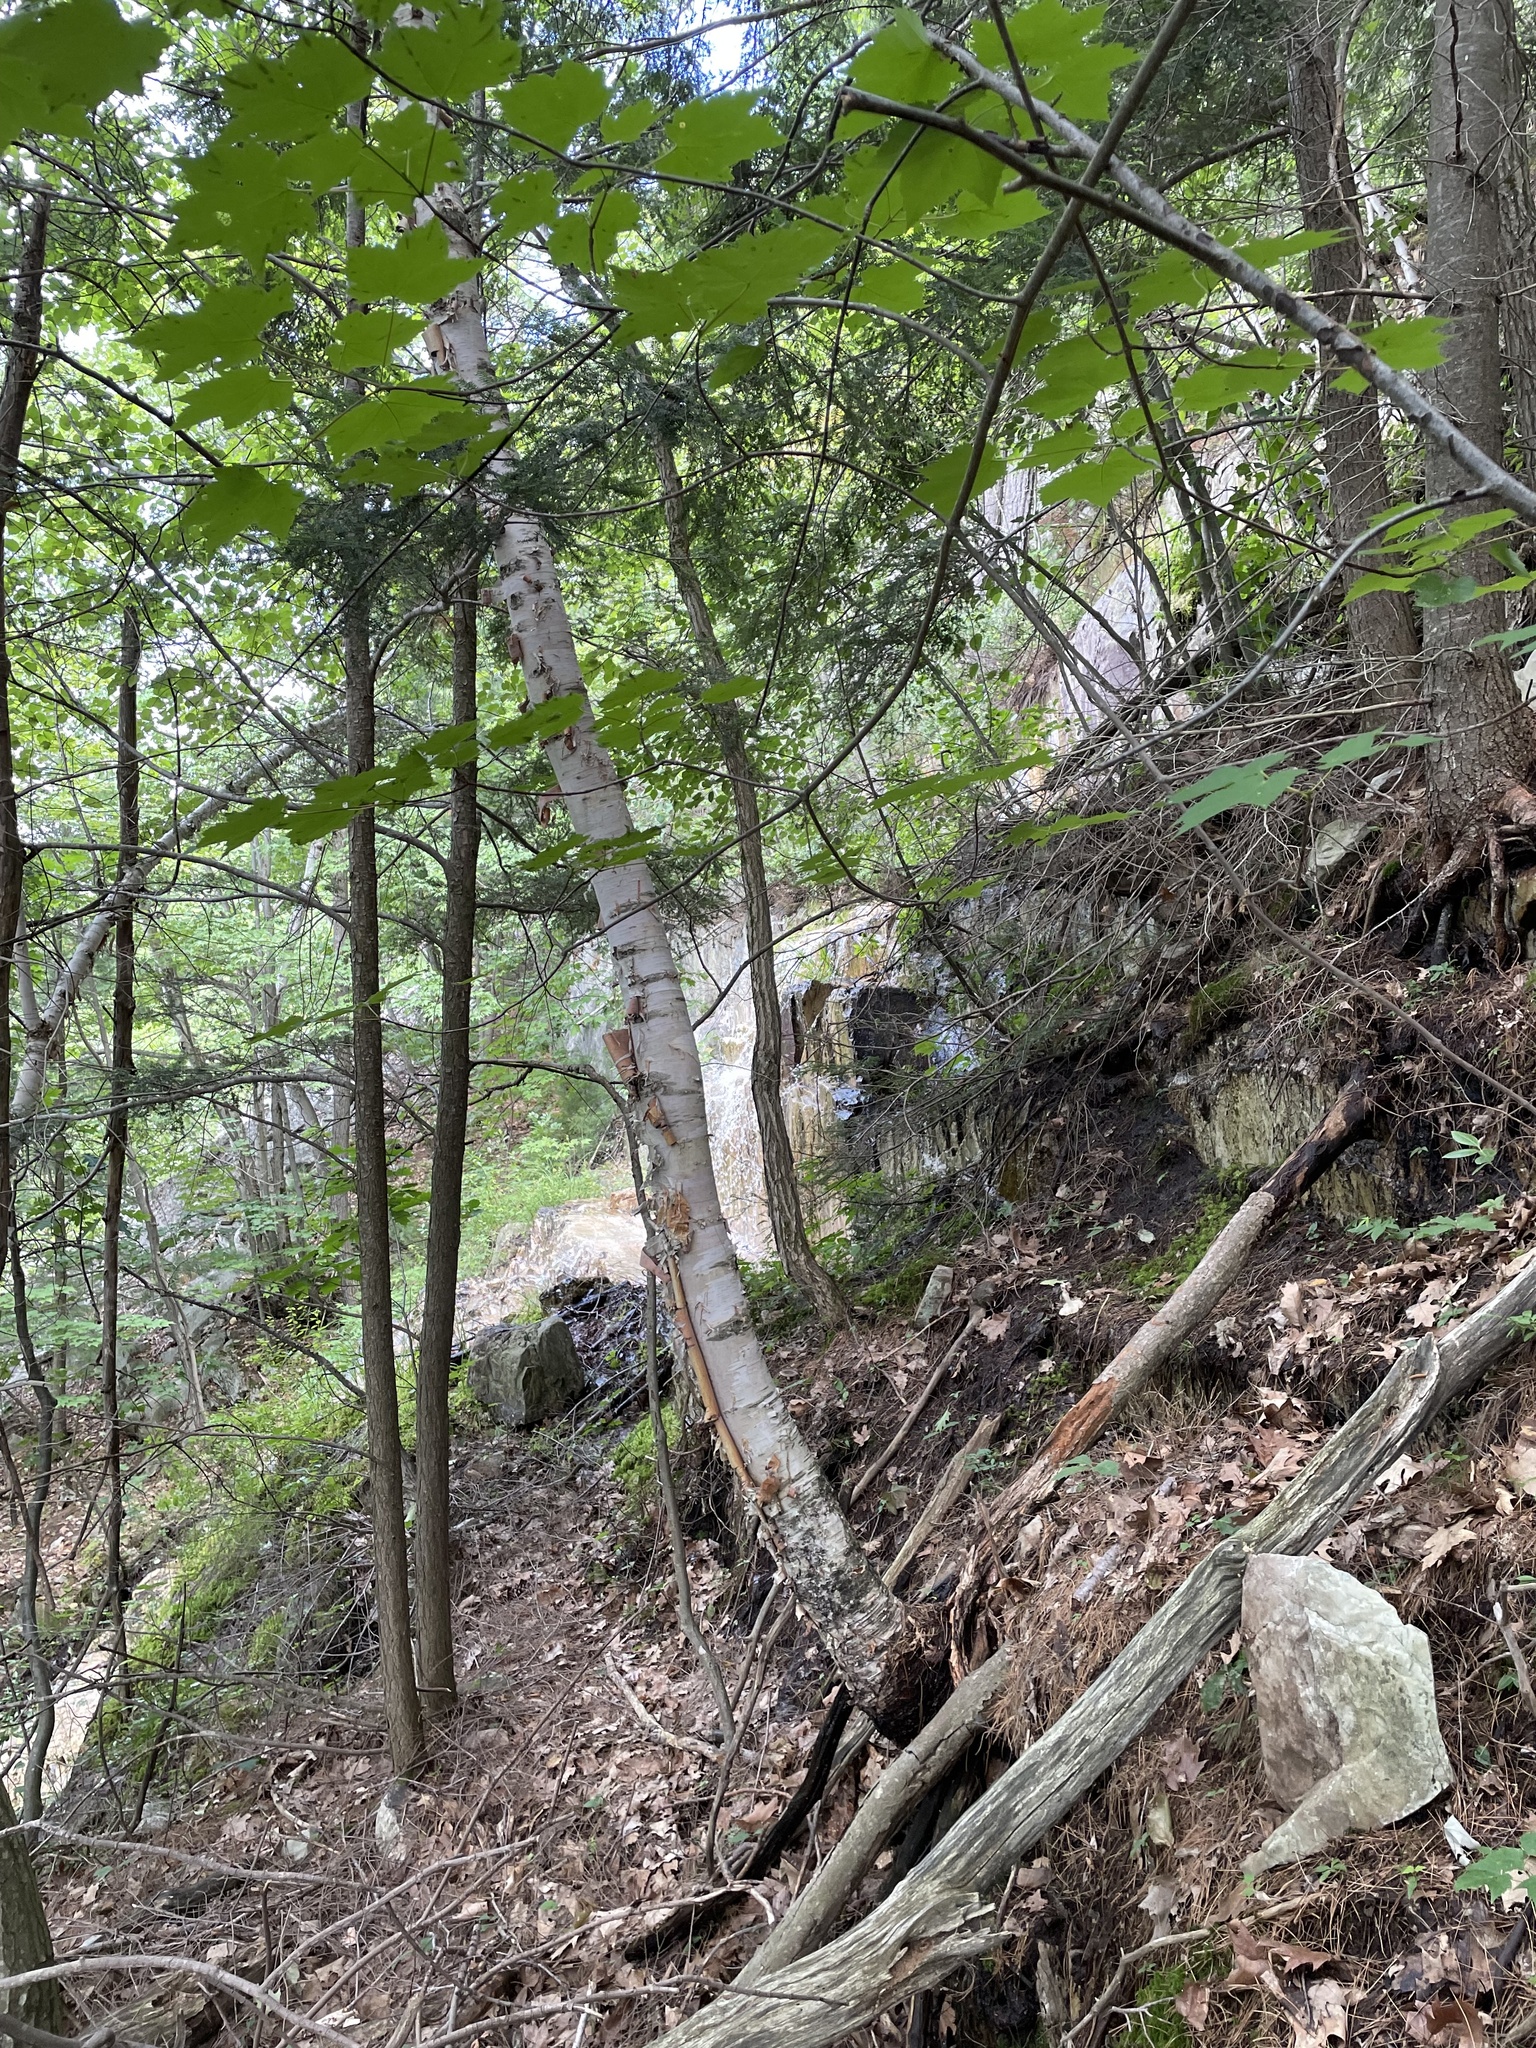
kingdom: Plantae
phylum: Tracheophyta
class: Magnoliopsida
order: Fagales
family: Betulaceae
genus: Betula
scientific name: Betula papyrifera
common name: Paper birch
